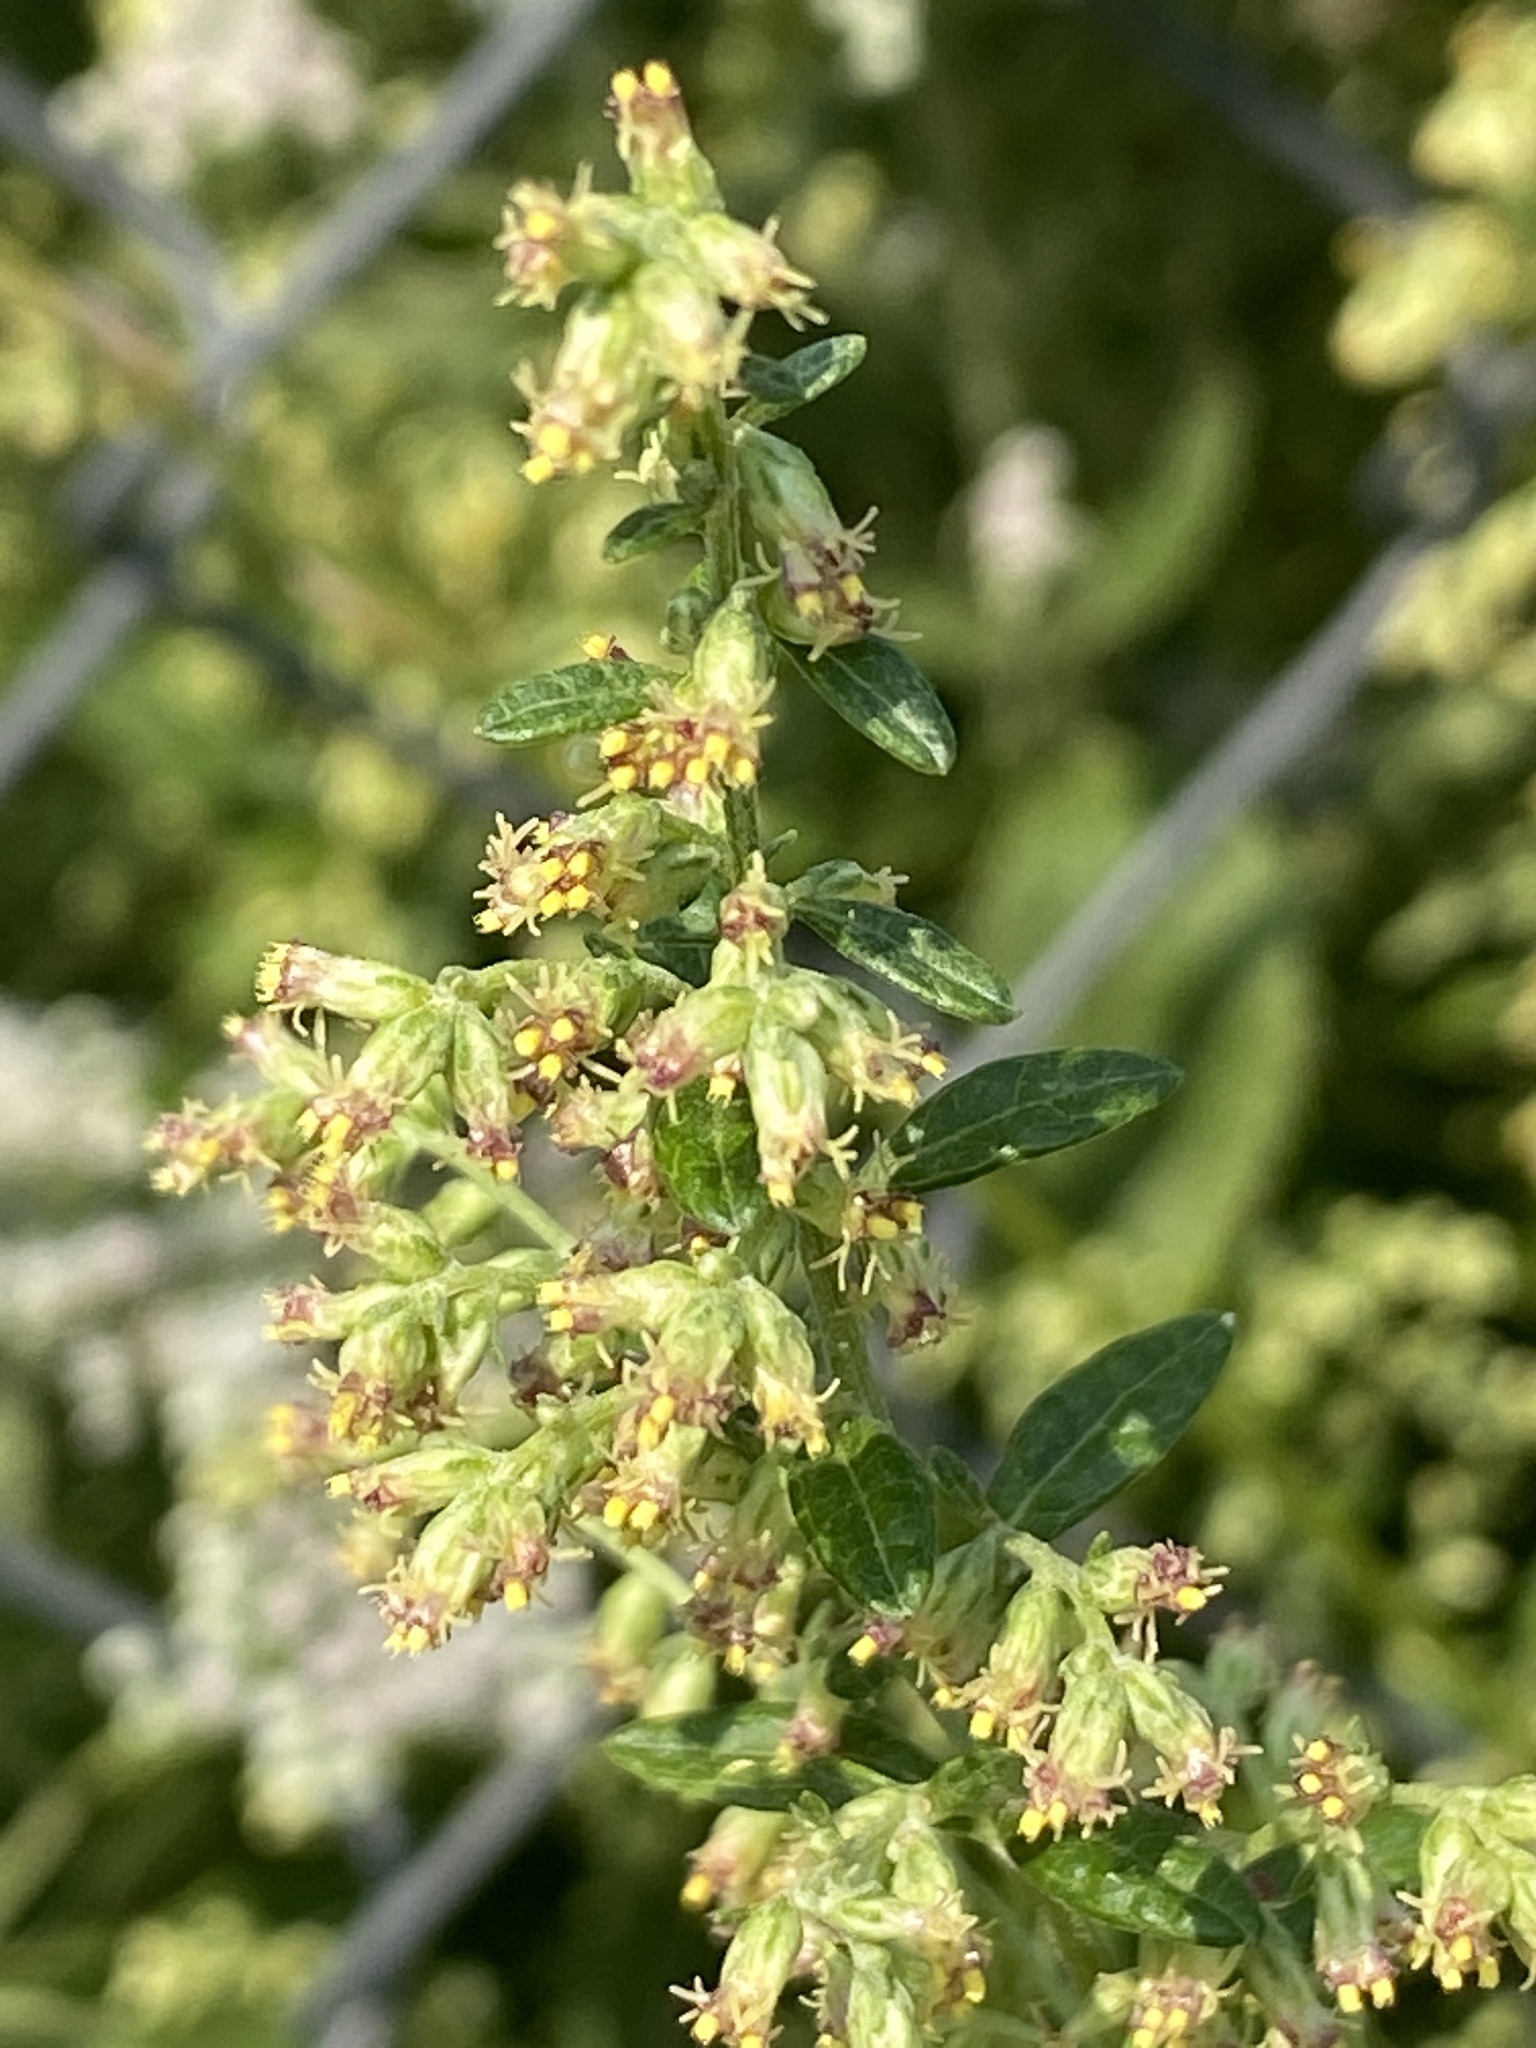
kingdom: Plantae
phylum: Tracheophyta
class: Magnoliopsida
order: Asterales
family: Asteraceae
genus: Artemisia
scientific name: Artemisia vulgaris
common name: Mugwort
